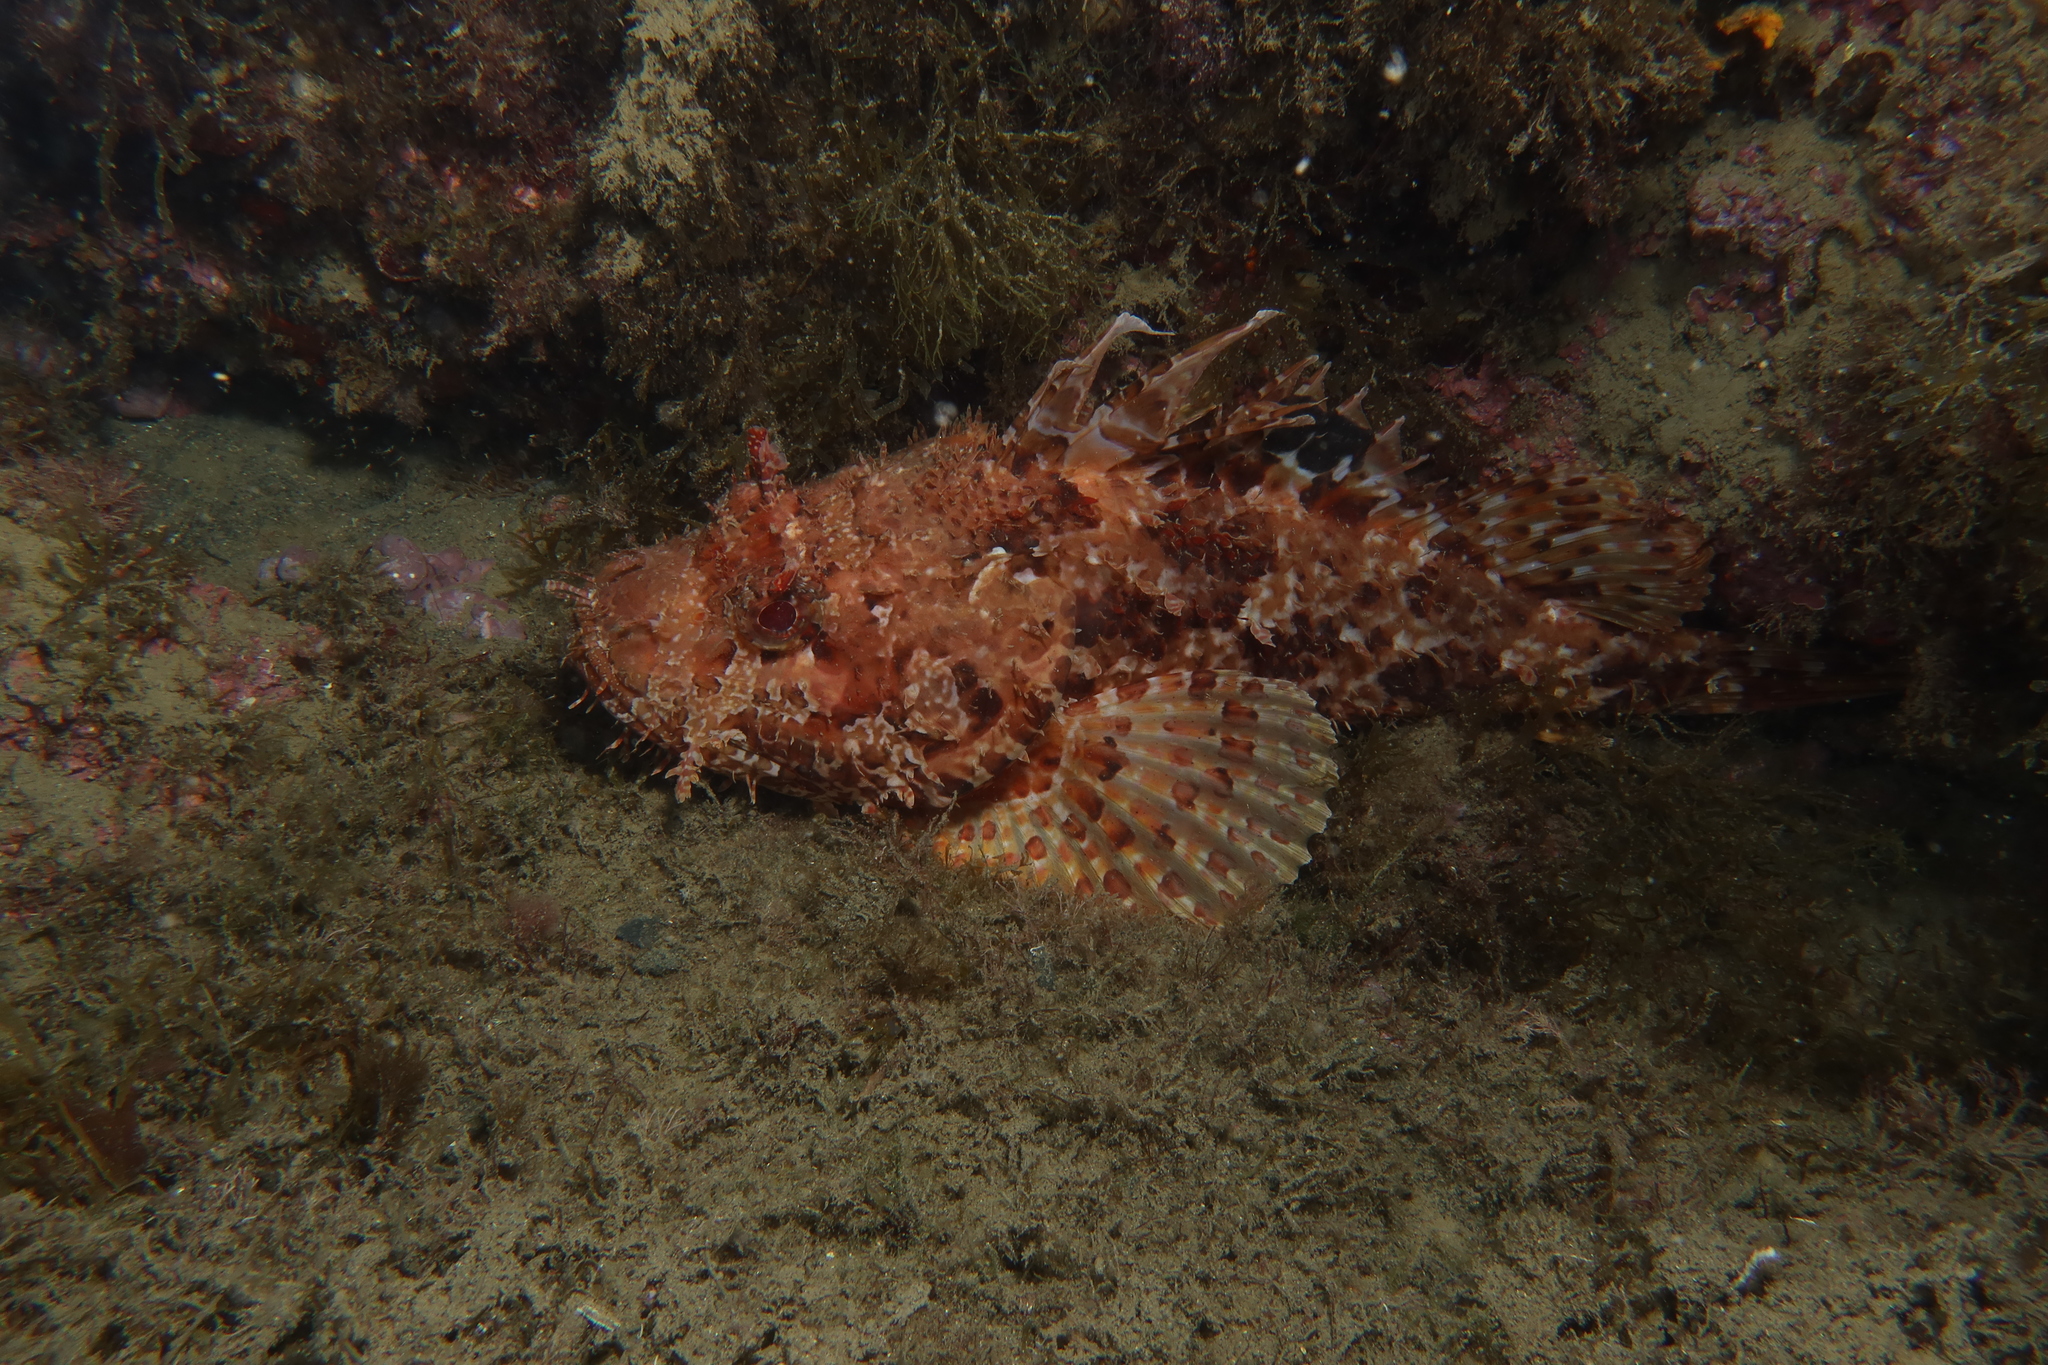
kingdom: Animalia
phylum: Chordata
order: Scorpaeniformes
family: Scorpaenidae
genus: Scorpaena
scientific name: Scorpaena scrofa
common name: Red scorpionfish
